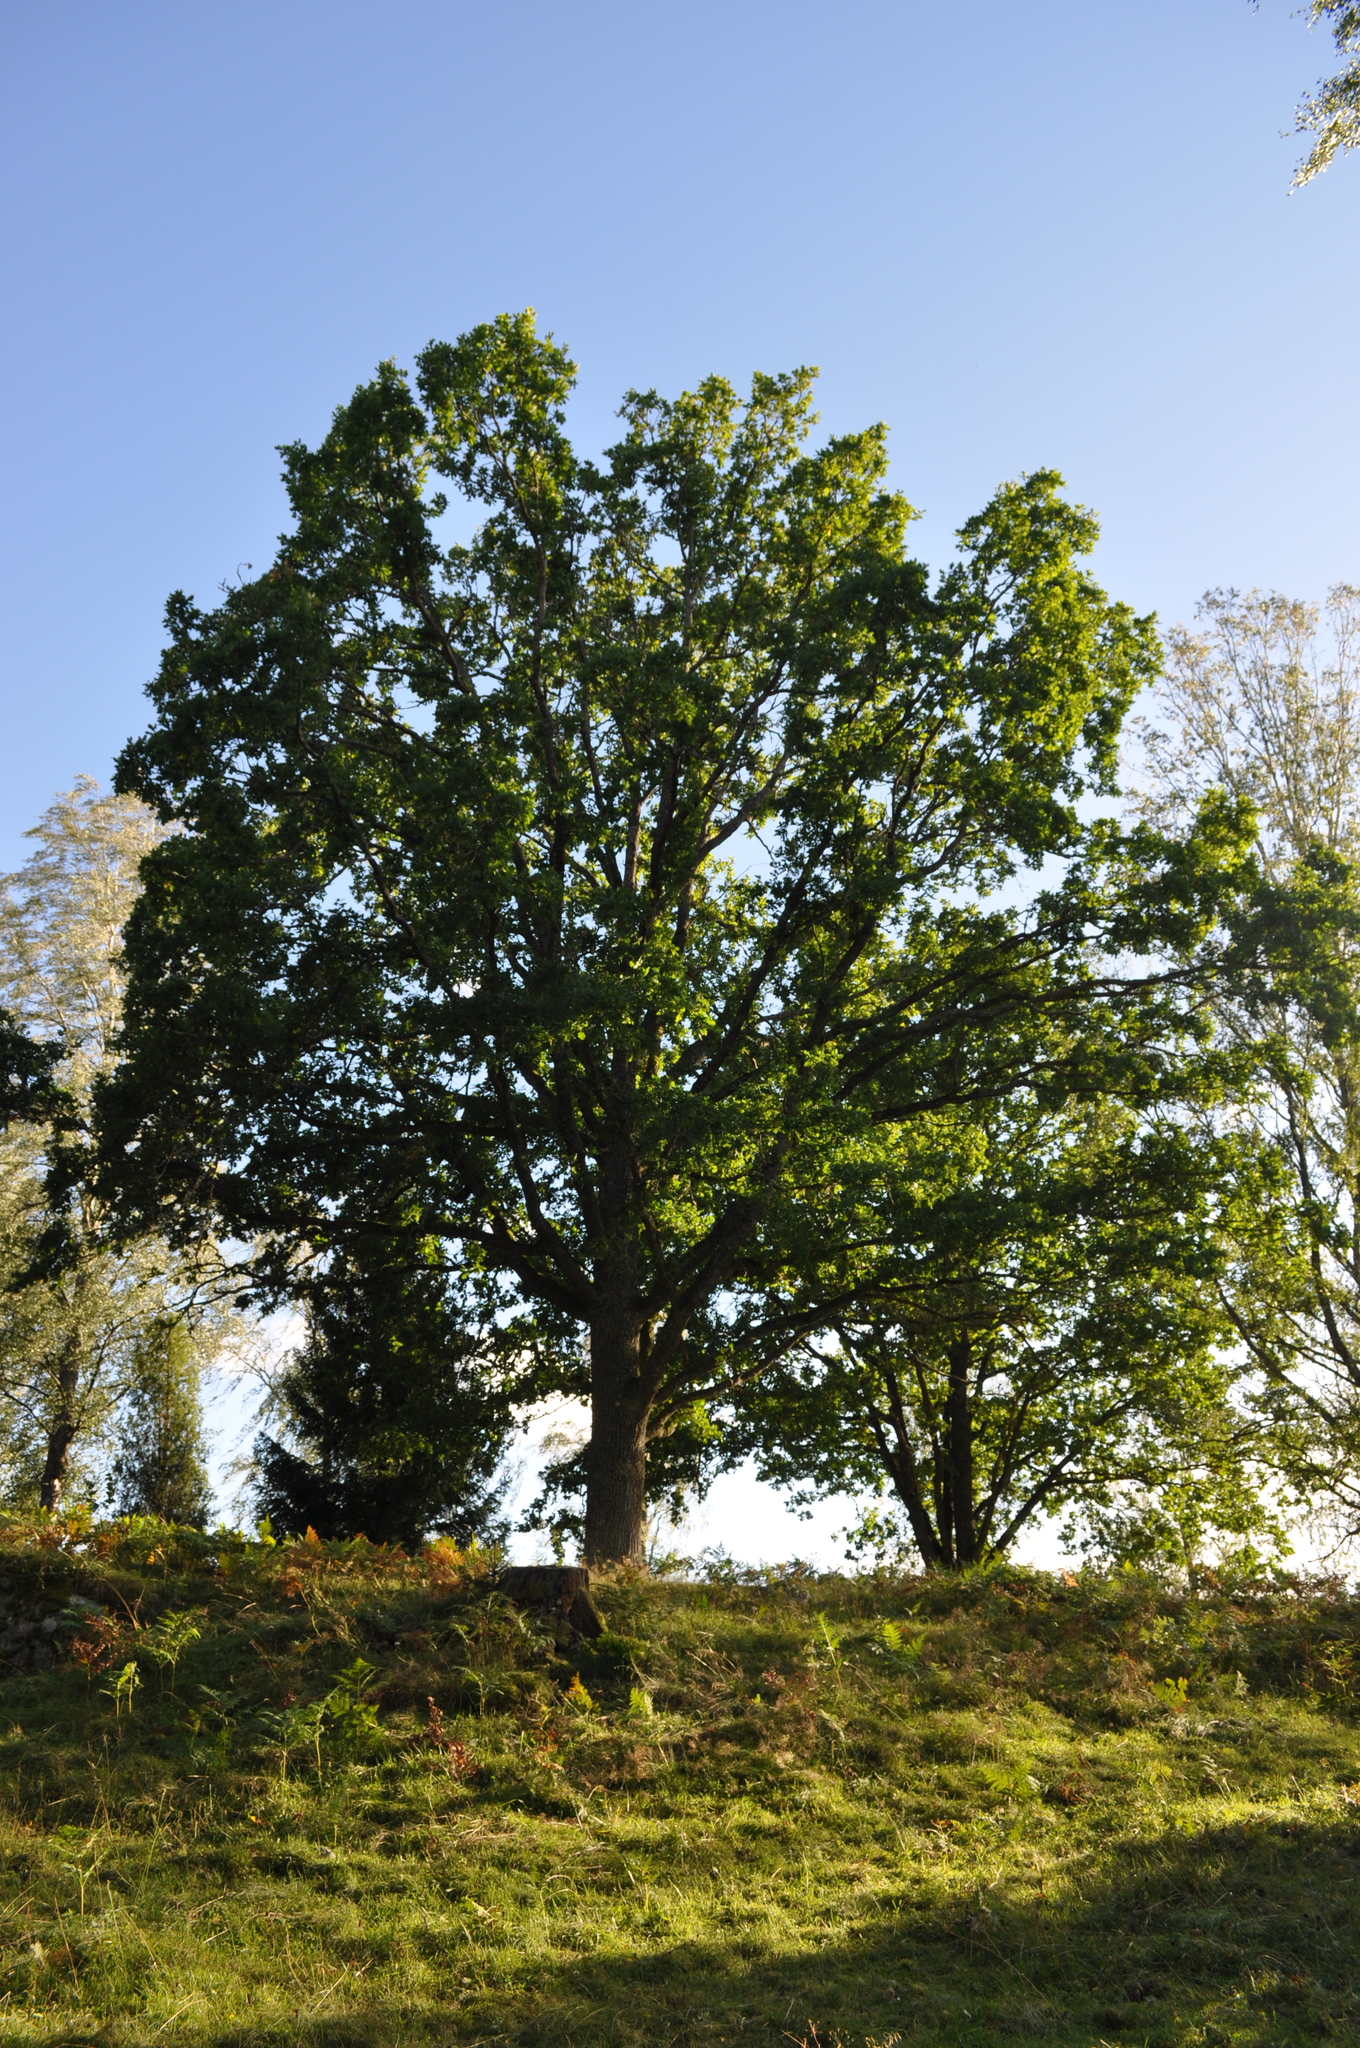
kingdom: Plantae
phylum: Tracheophyta
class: Magnoliopsida
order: Fagales
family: Fagaceae
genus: Quercus
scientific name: Quercus robur
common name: Pedunculate oak
